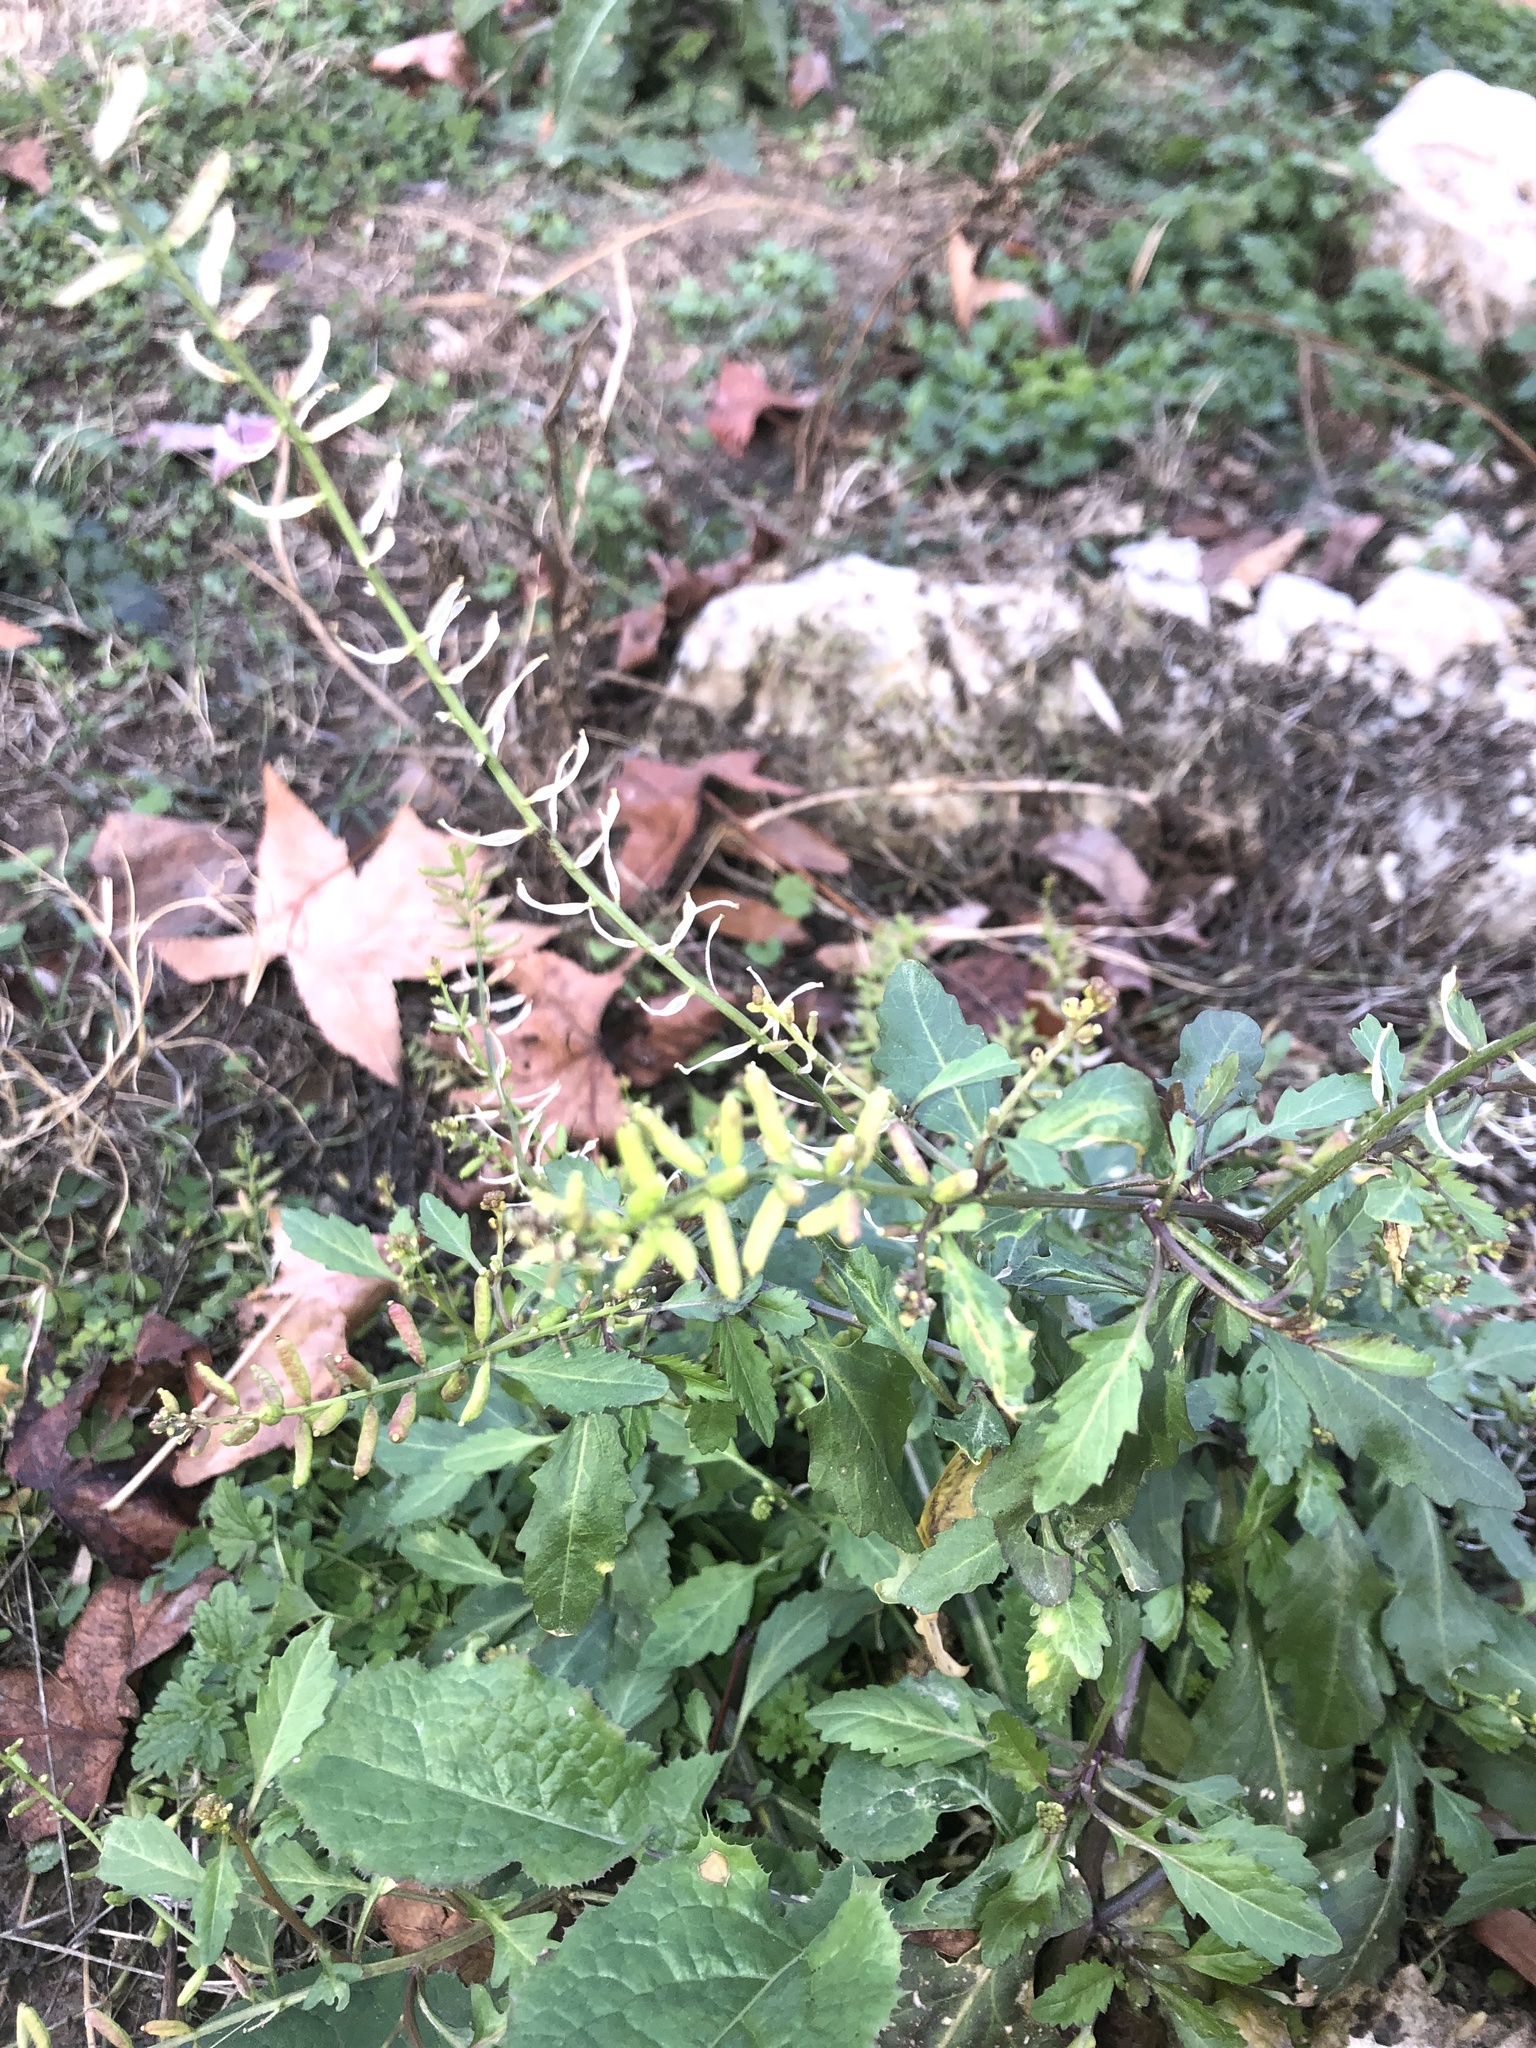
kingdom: Plantae
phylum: Tracheophyta
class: Magnoliopsida
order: Brassicales
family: Brassicaceae
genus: Rorippa
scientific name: Rorippa sessiliflora
